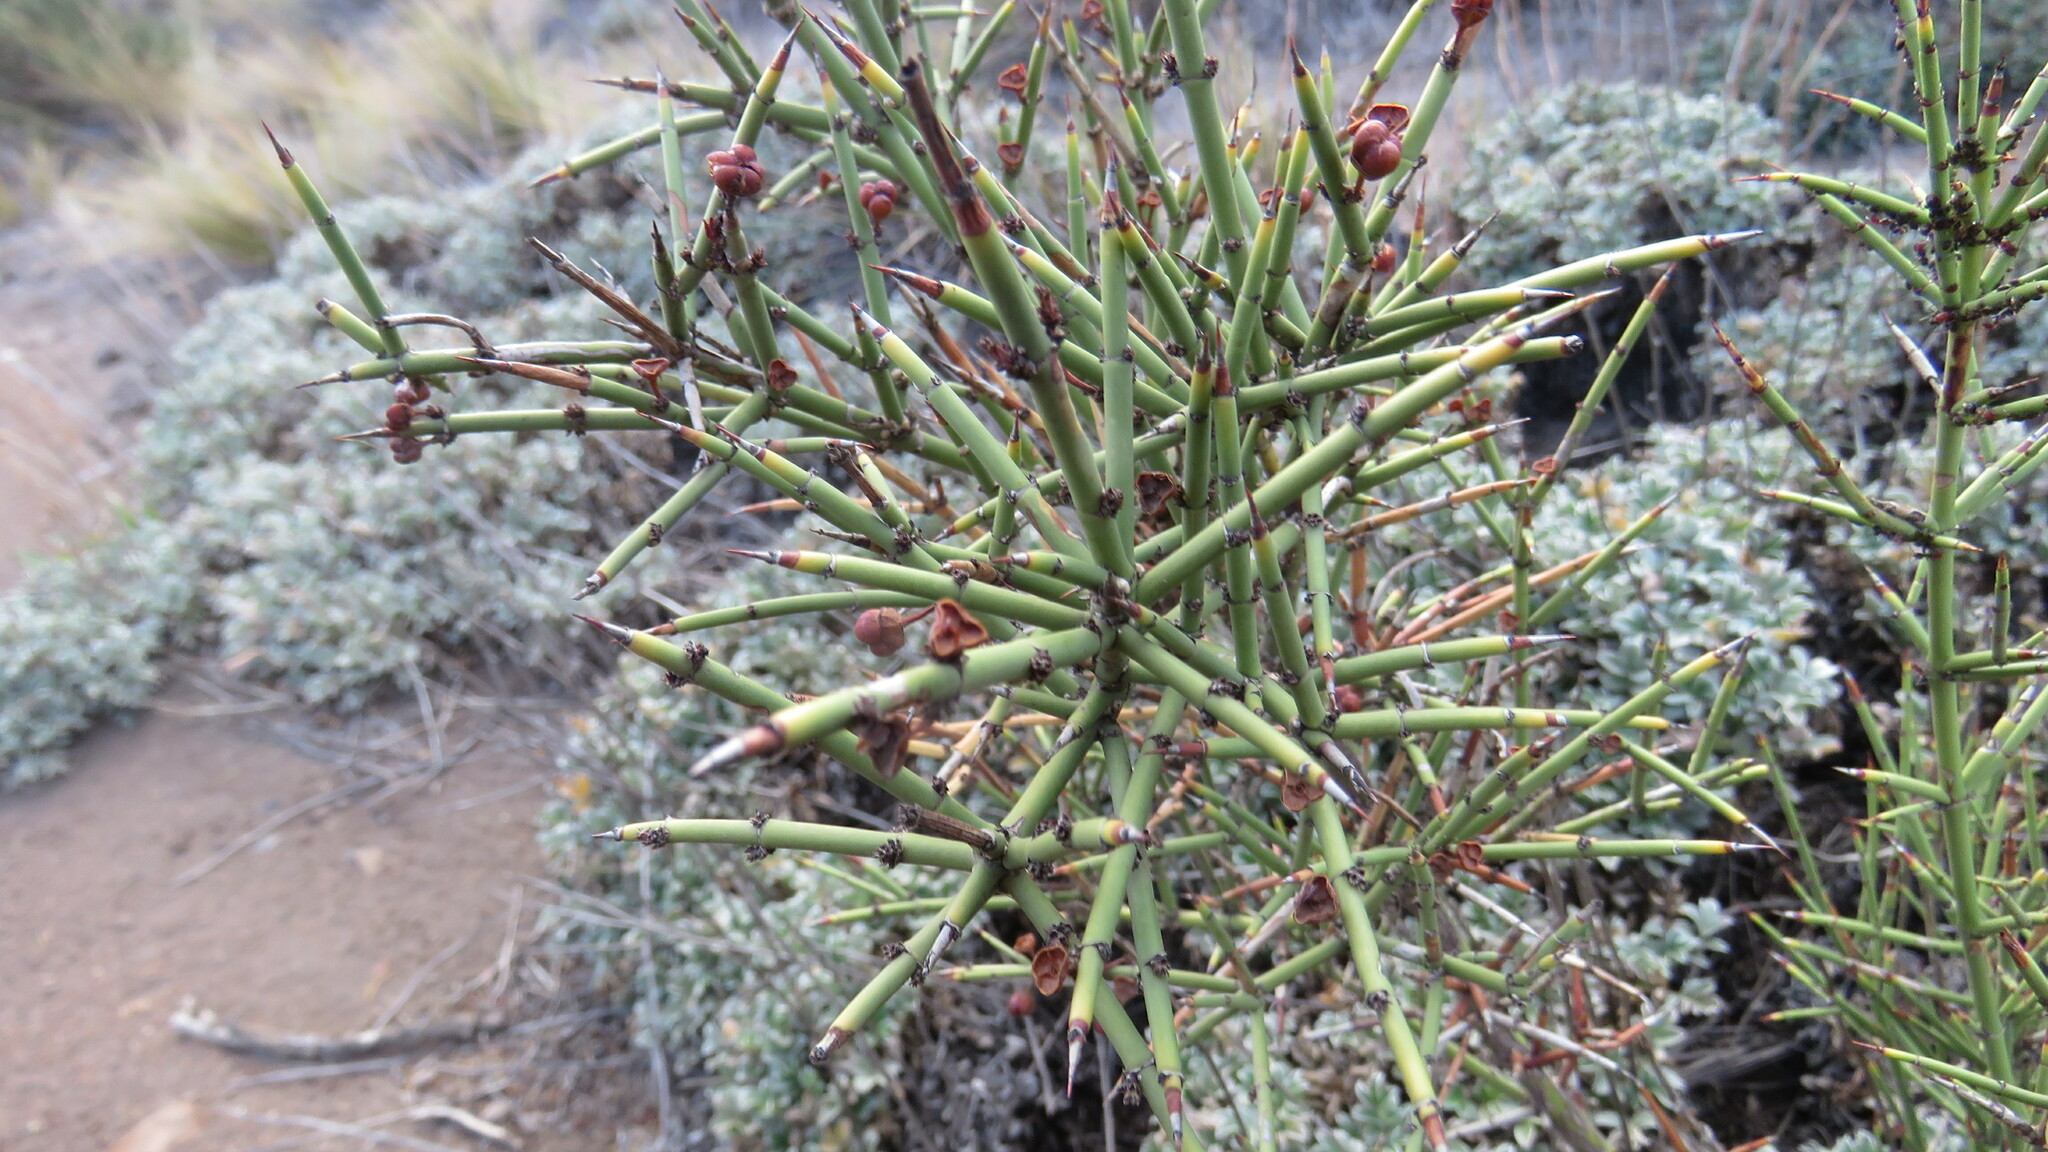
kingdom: Plantae
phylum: Tracheophyta
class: Magnoliopsida
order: Rosales
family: Rhamnaceae
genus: Colletia
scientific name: Colletia hystrix
